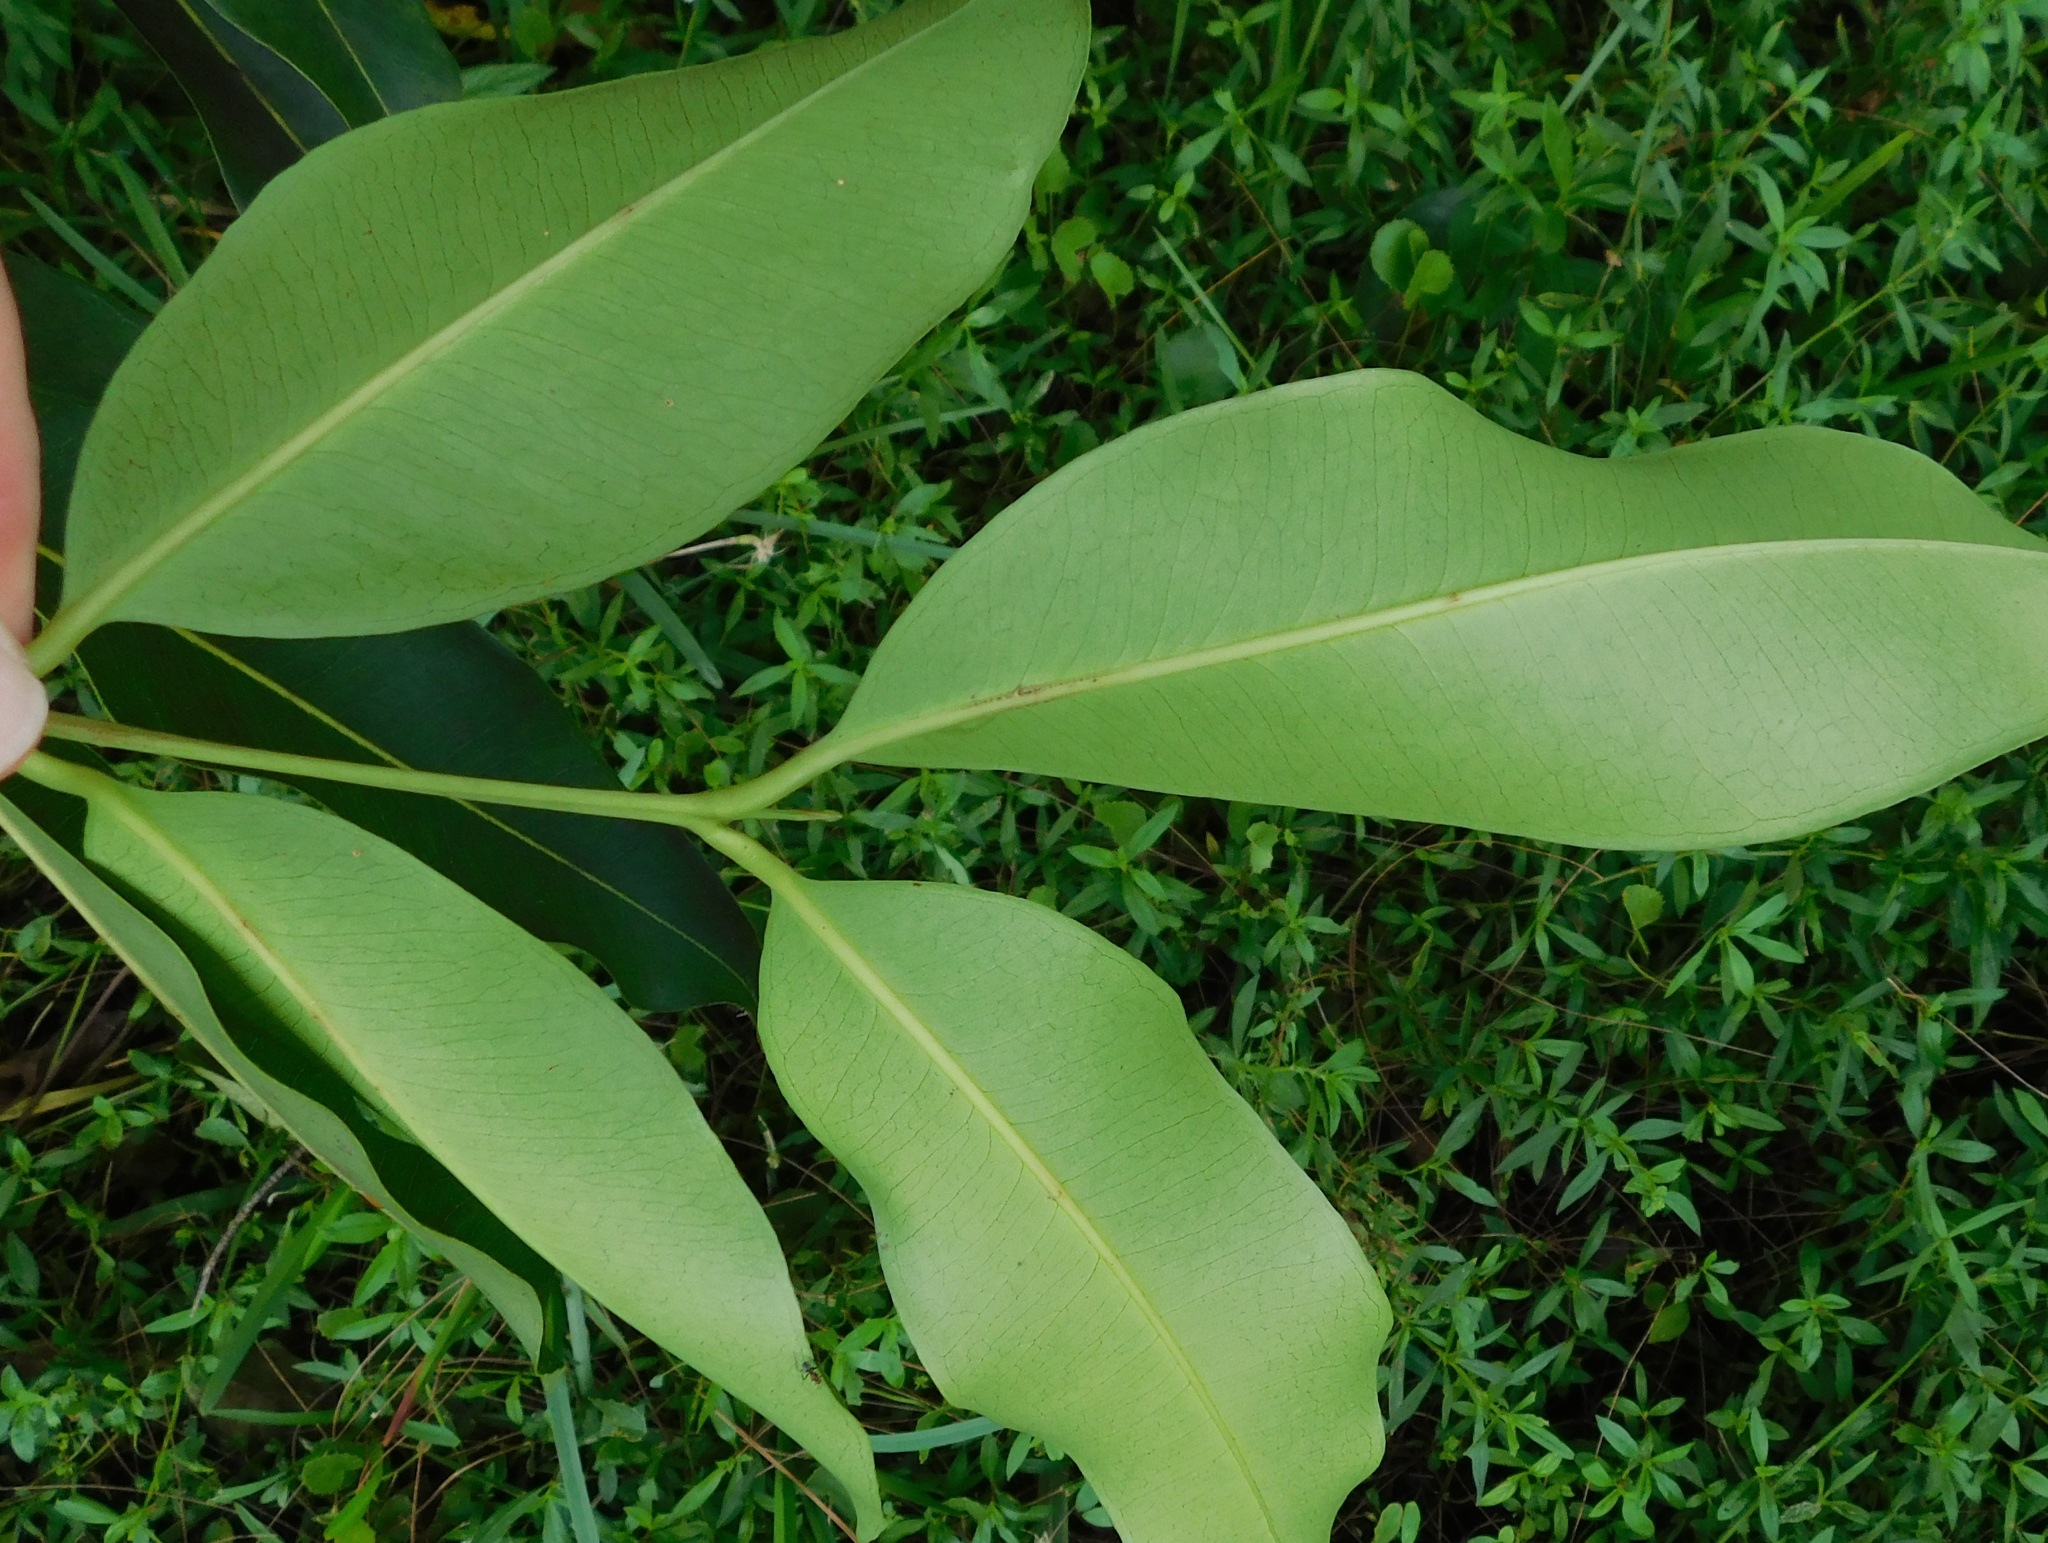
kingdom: Plantae
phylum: Tracheophyta
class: Magnoliopsida
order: Myrtales
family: Myrtaceae
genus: Syzygium
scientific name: Syzygium cumini
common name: Java plum
